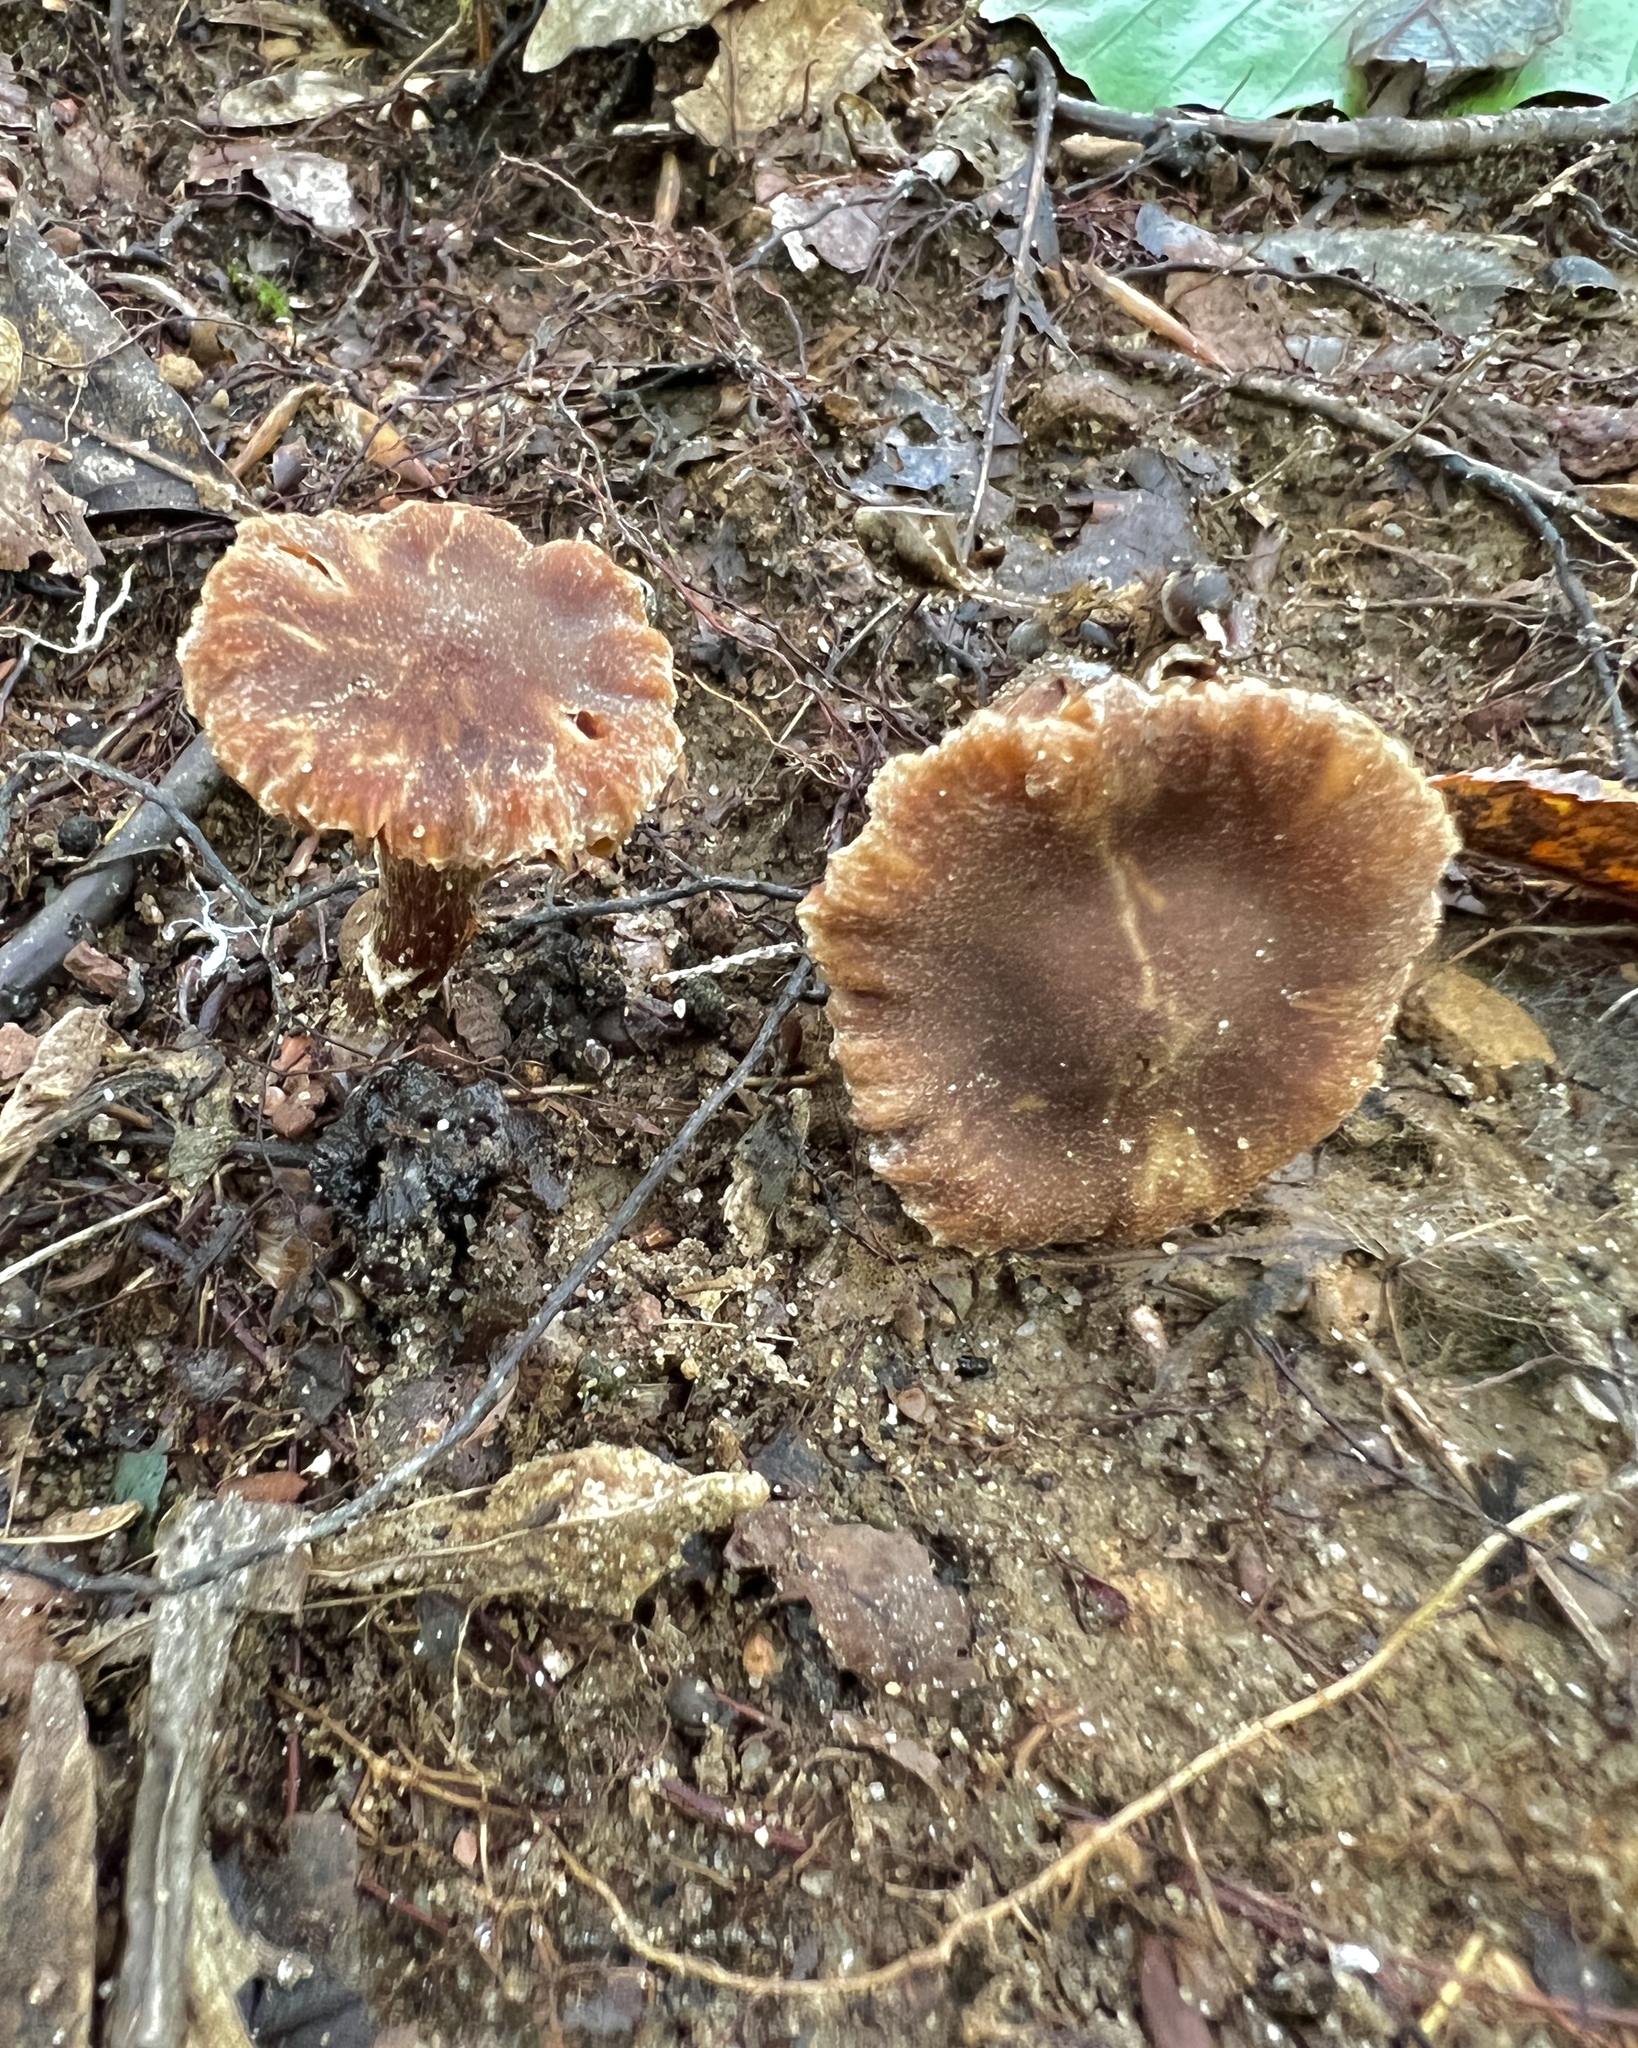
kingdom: Fungi
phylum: Basidiomycota
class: Agaricomycetes
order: Agaricales
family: Cortinariaceae
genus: Cortinarius
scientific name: Cortinarius
